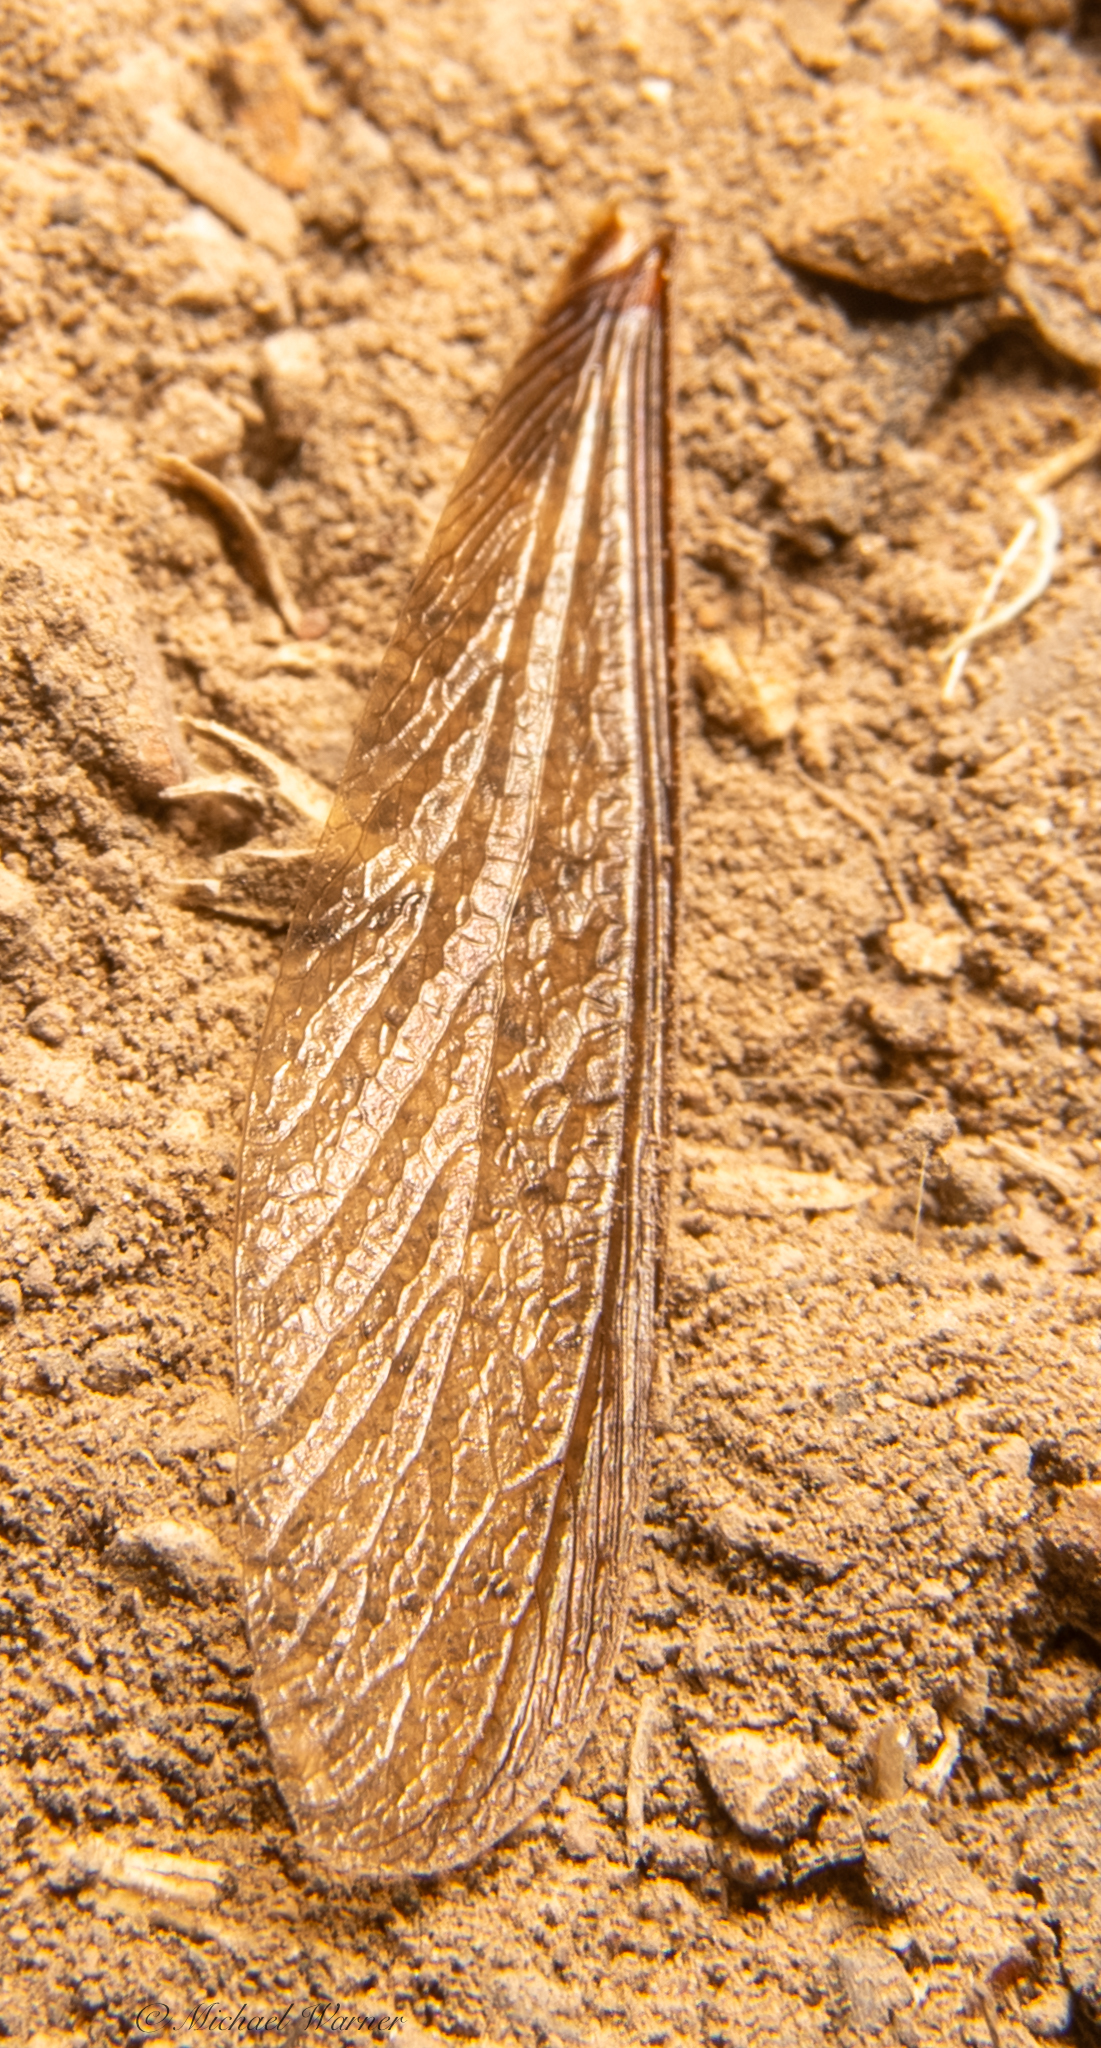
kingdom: Animalia
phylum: Arthropoda
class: Insecta
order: Blattodea
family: Archotermopsidae
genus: Zootermopsis
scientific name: Zootermopsis
